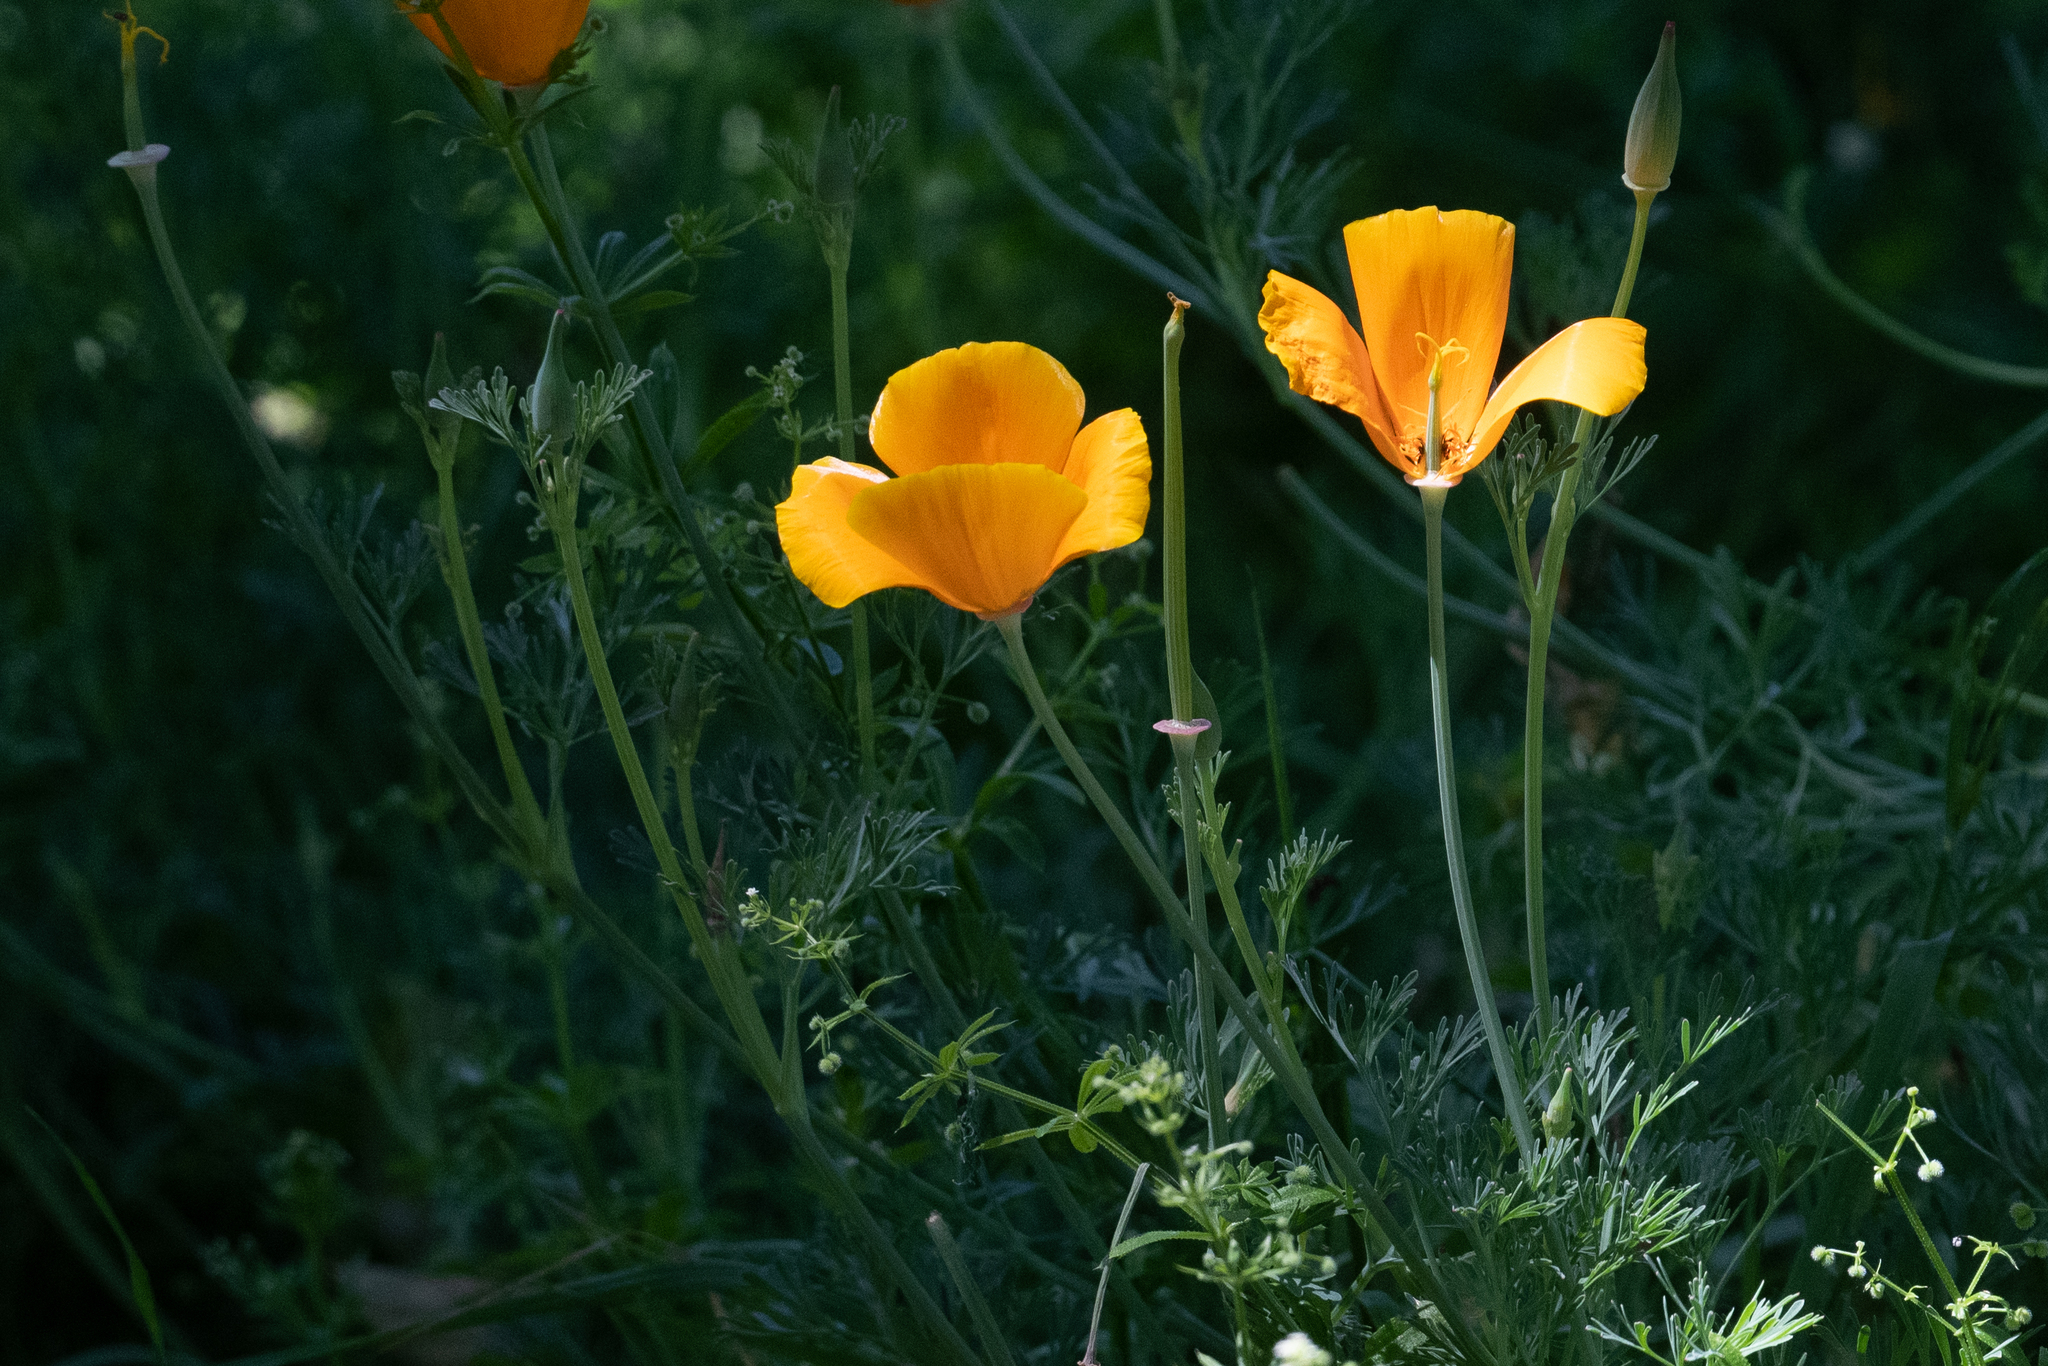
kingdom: Plantae
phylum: Tracheophyta
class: Magnoliopsida
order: Ranunculales
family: Papaveraceae
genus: Eschscholzia
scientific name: Eschscholzia californica
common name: California poppy
